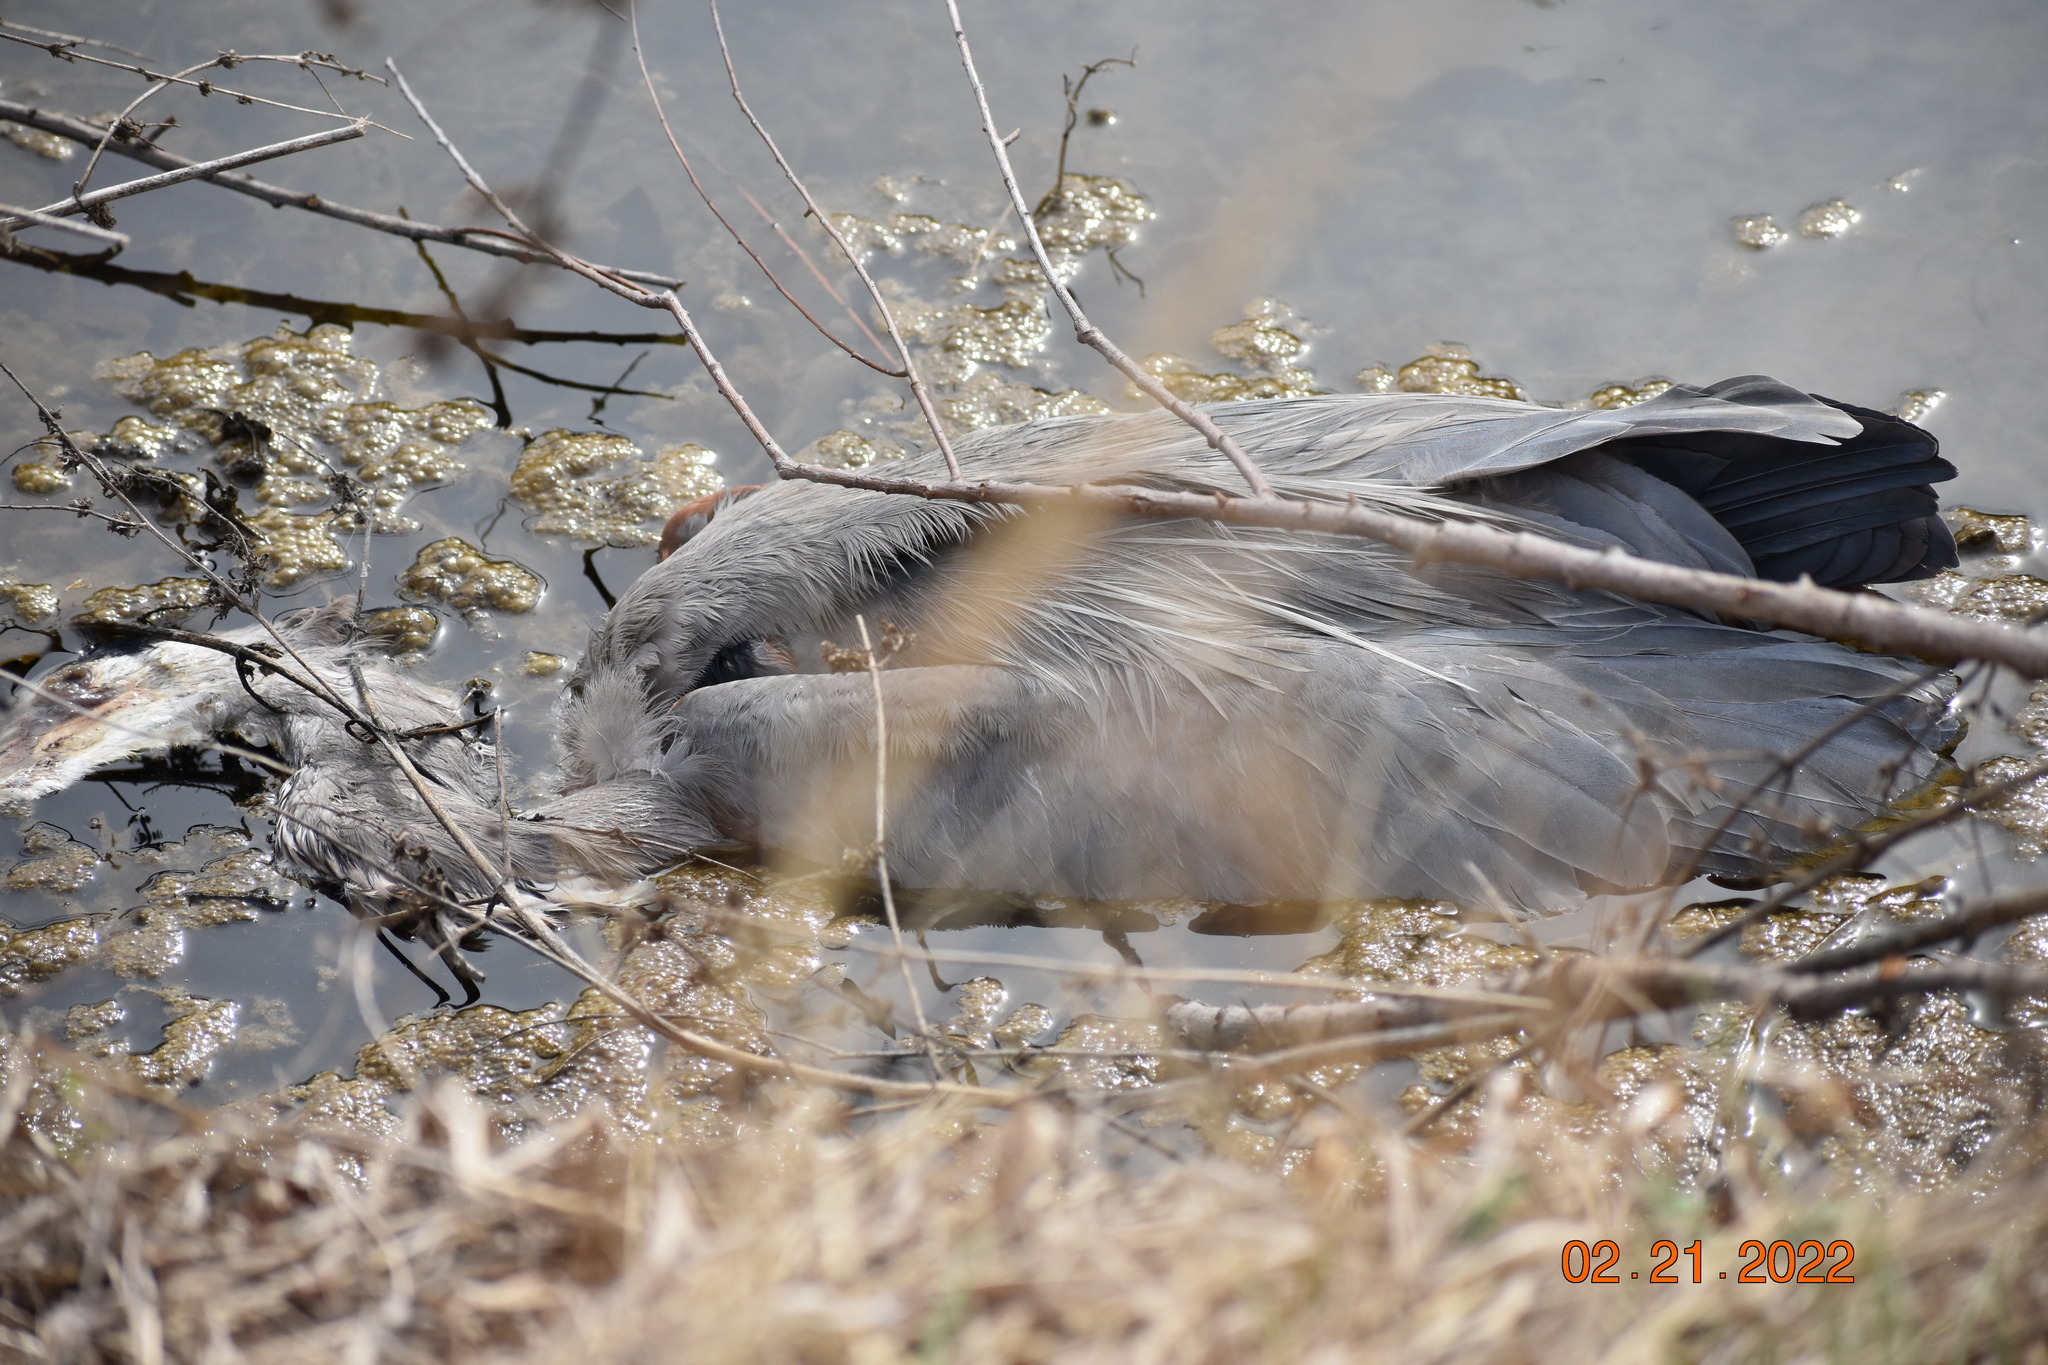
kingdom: Animalia
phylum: Chordata
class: Aves
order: Pelecaniformes
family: Ardeidae
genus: Ardea
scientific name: Ardea herodias
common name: Great blue heron
